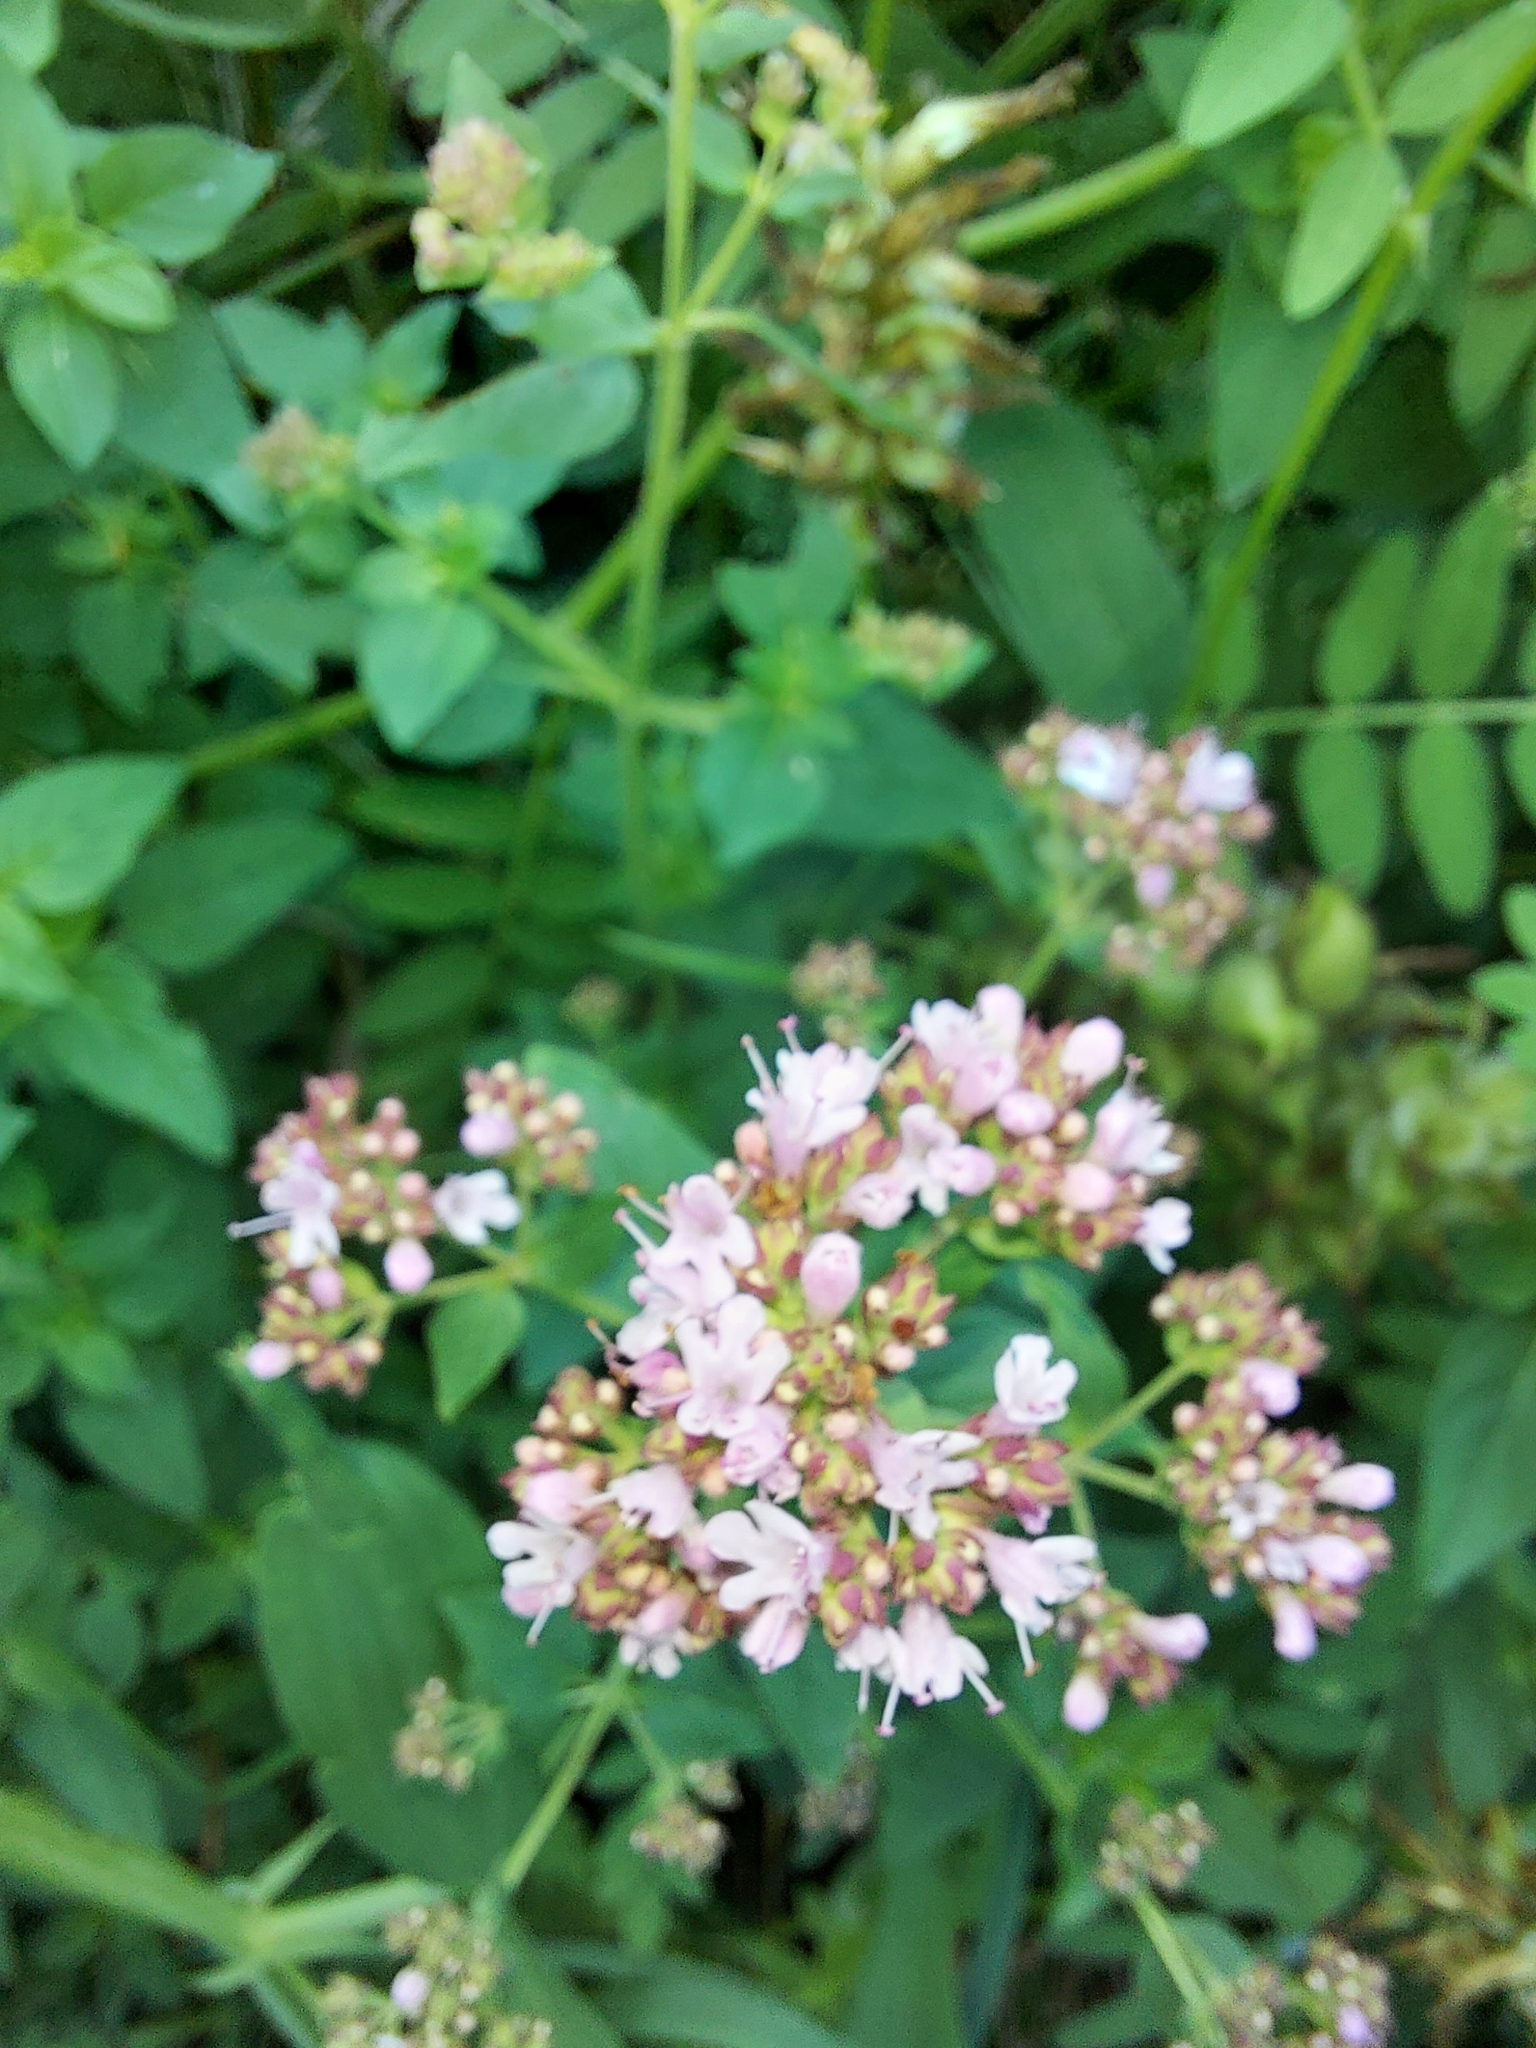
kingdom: Plantae
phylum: Tracheophyta
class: Magnoliopsida
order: Lamiales
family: Lamiaceae
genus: Origanum
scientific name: Origanum vulgare
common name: Wild marjoram
